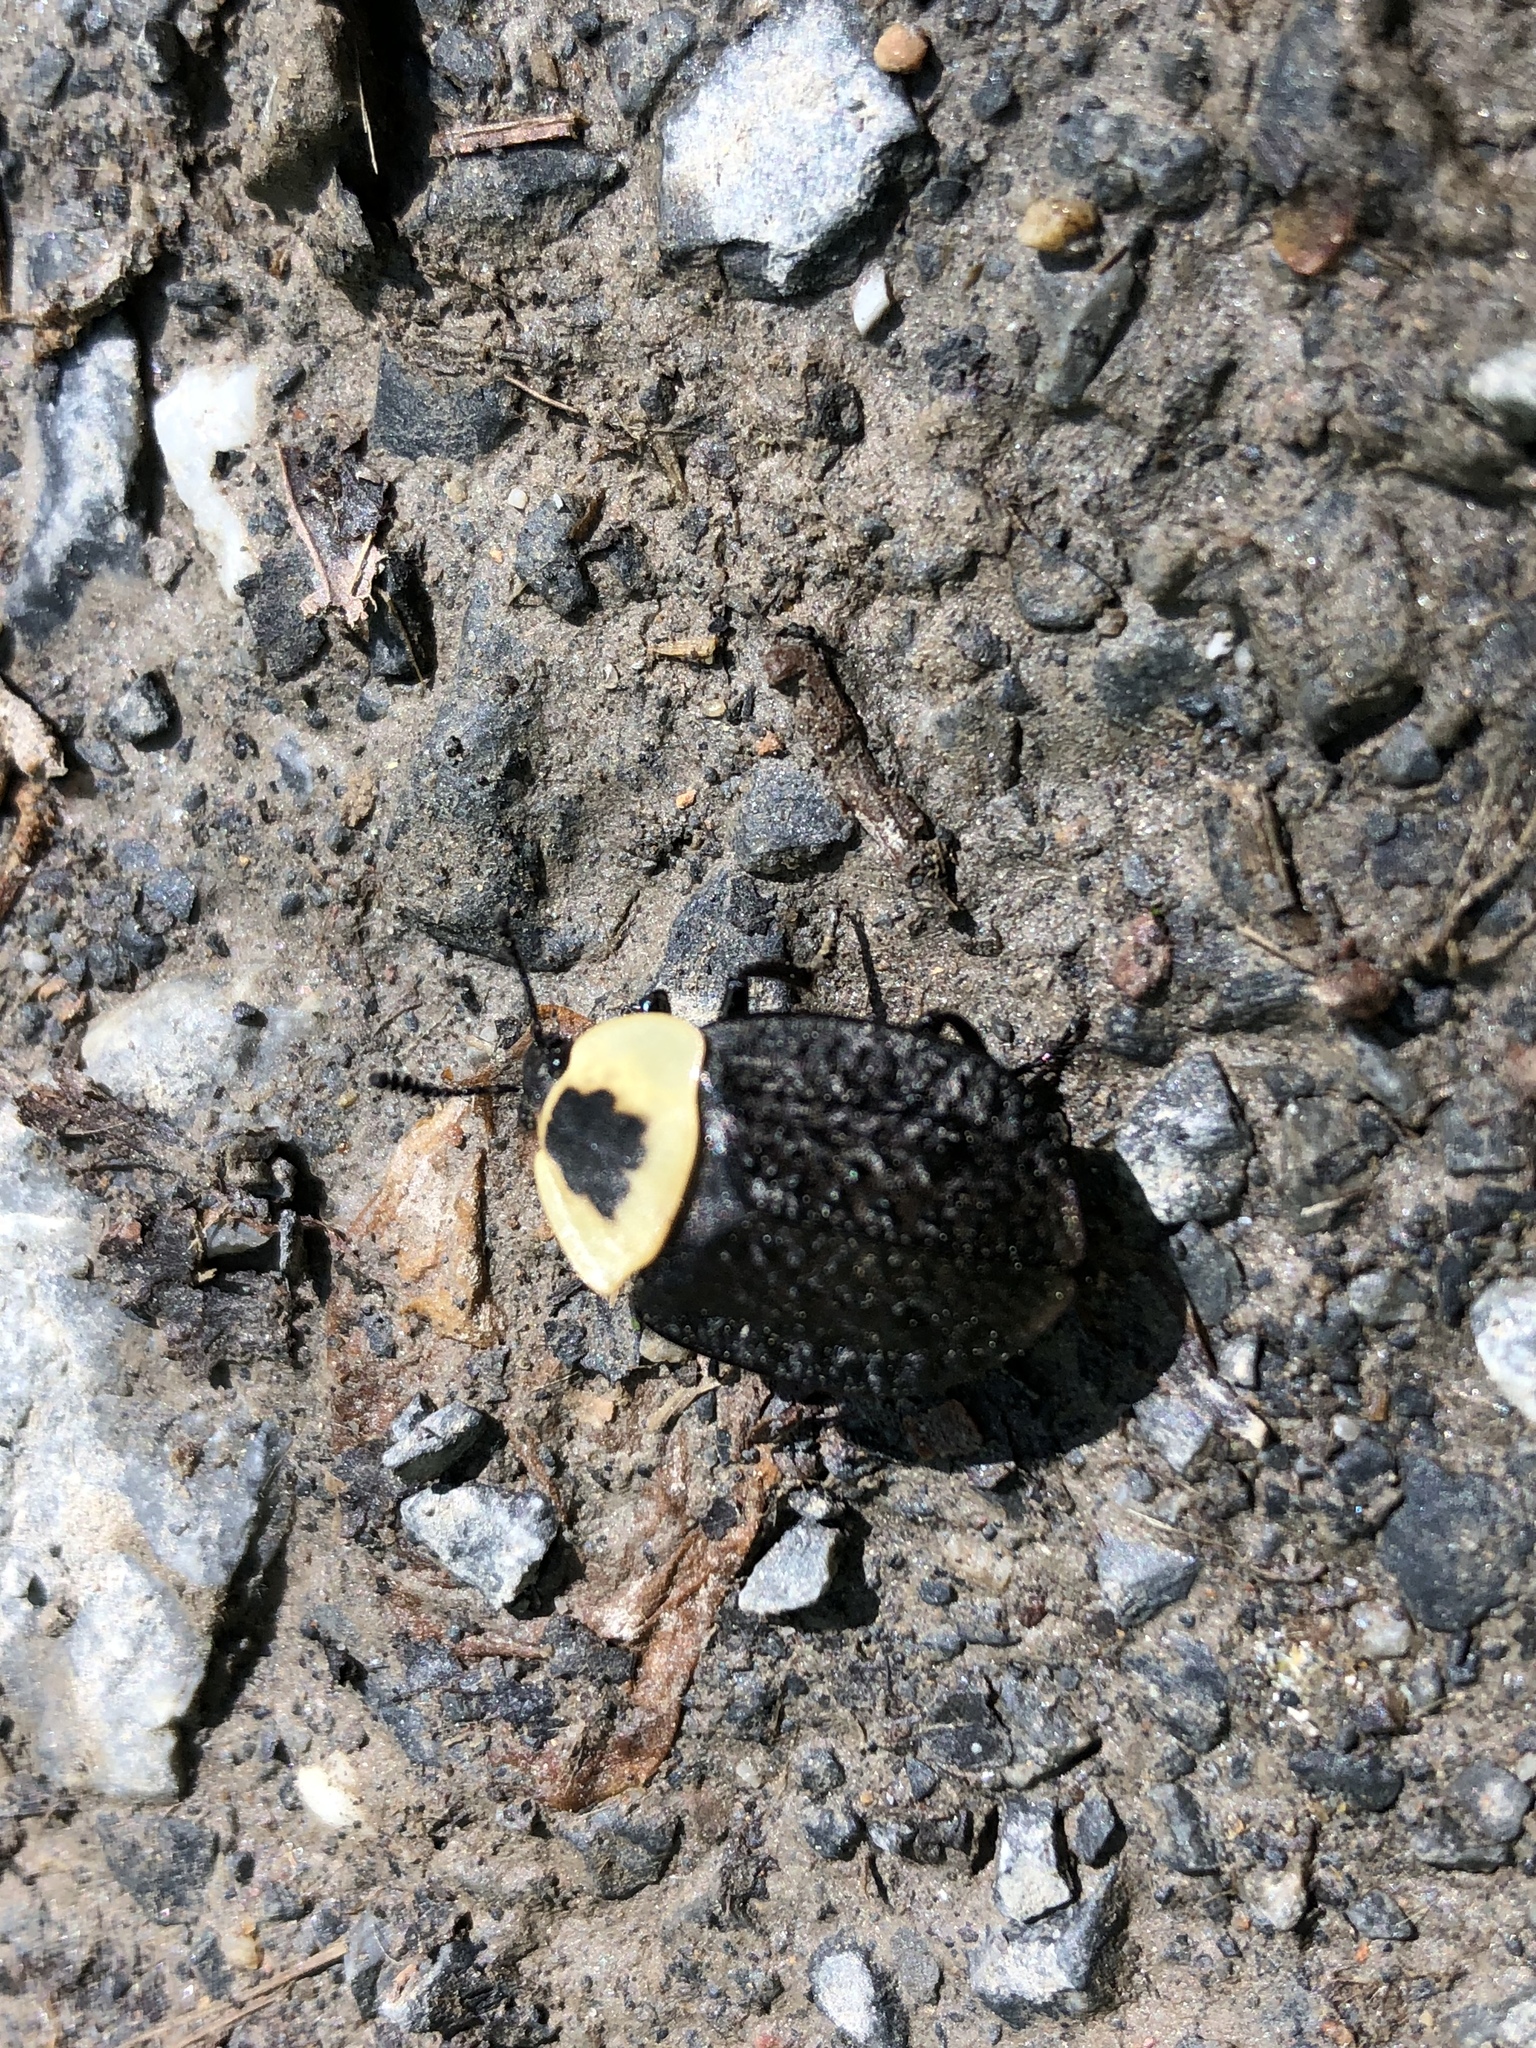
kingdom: Animalia
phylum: Arthropoda
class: Insecta
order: Coleoptera
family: Staphylinidae
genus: Necrophila
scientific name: Necrophila americana
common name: American carrion beetle
